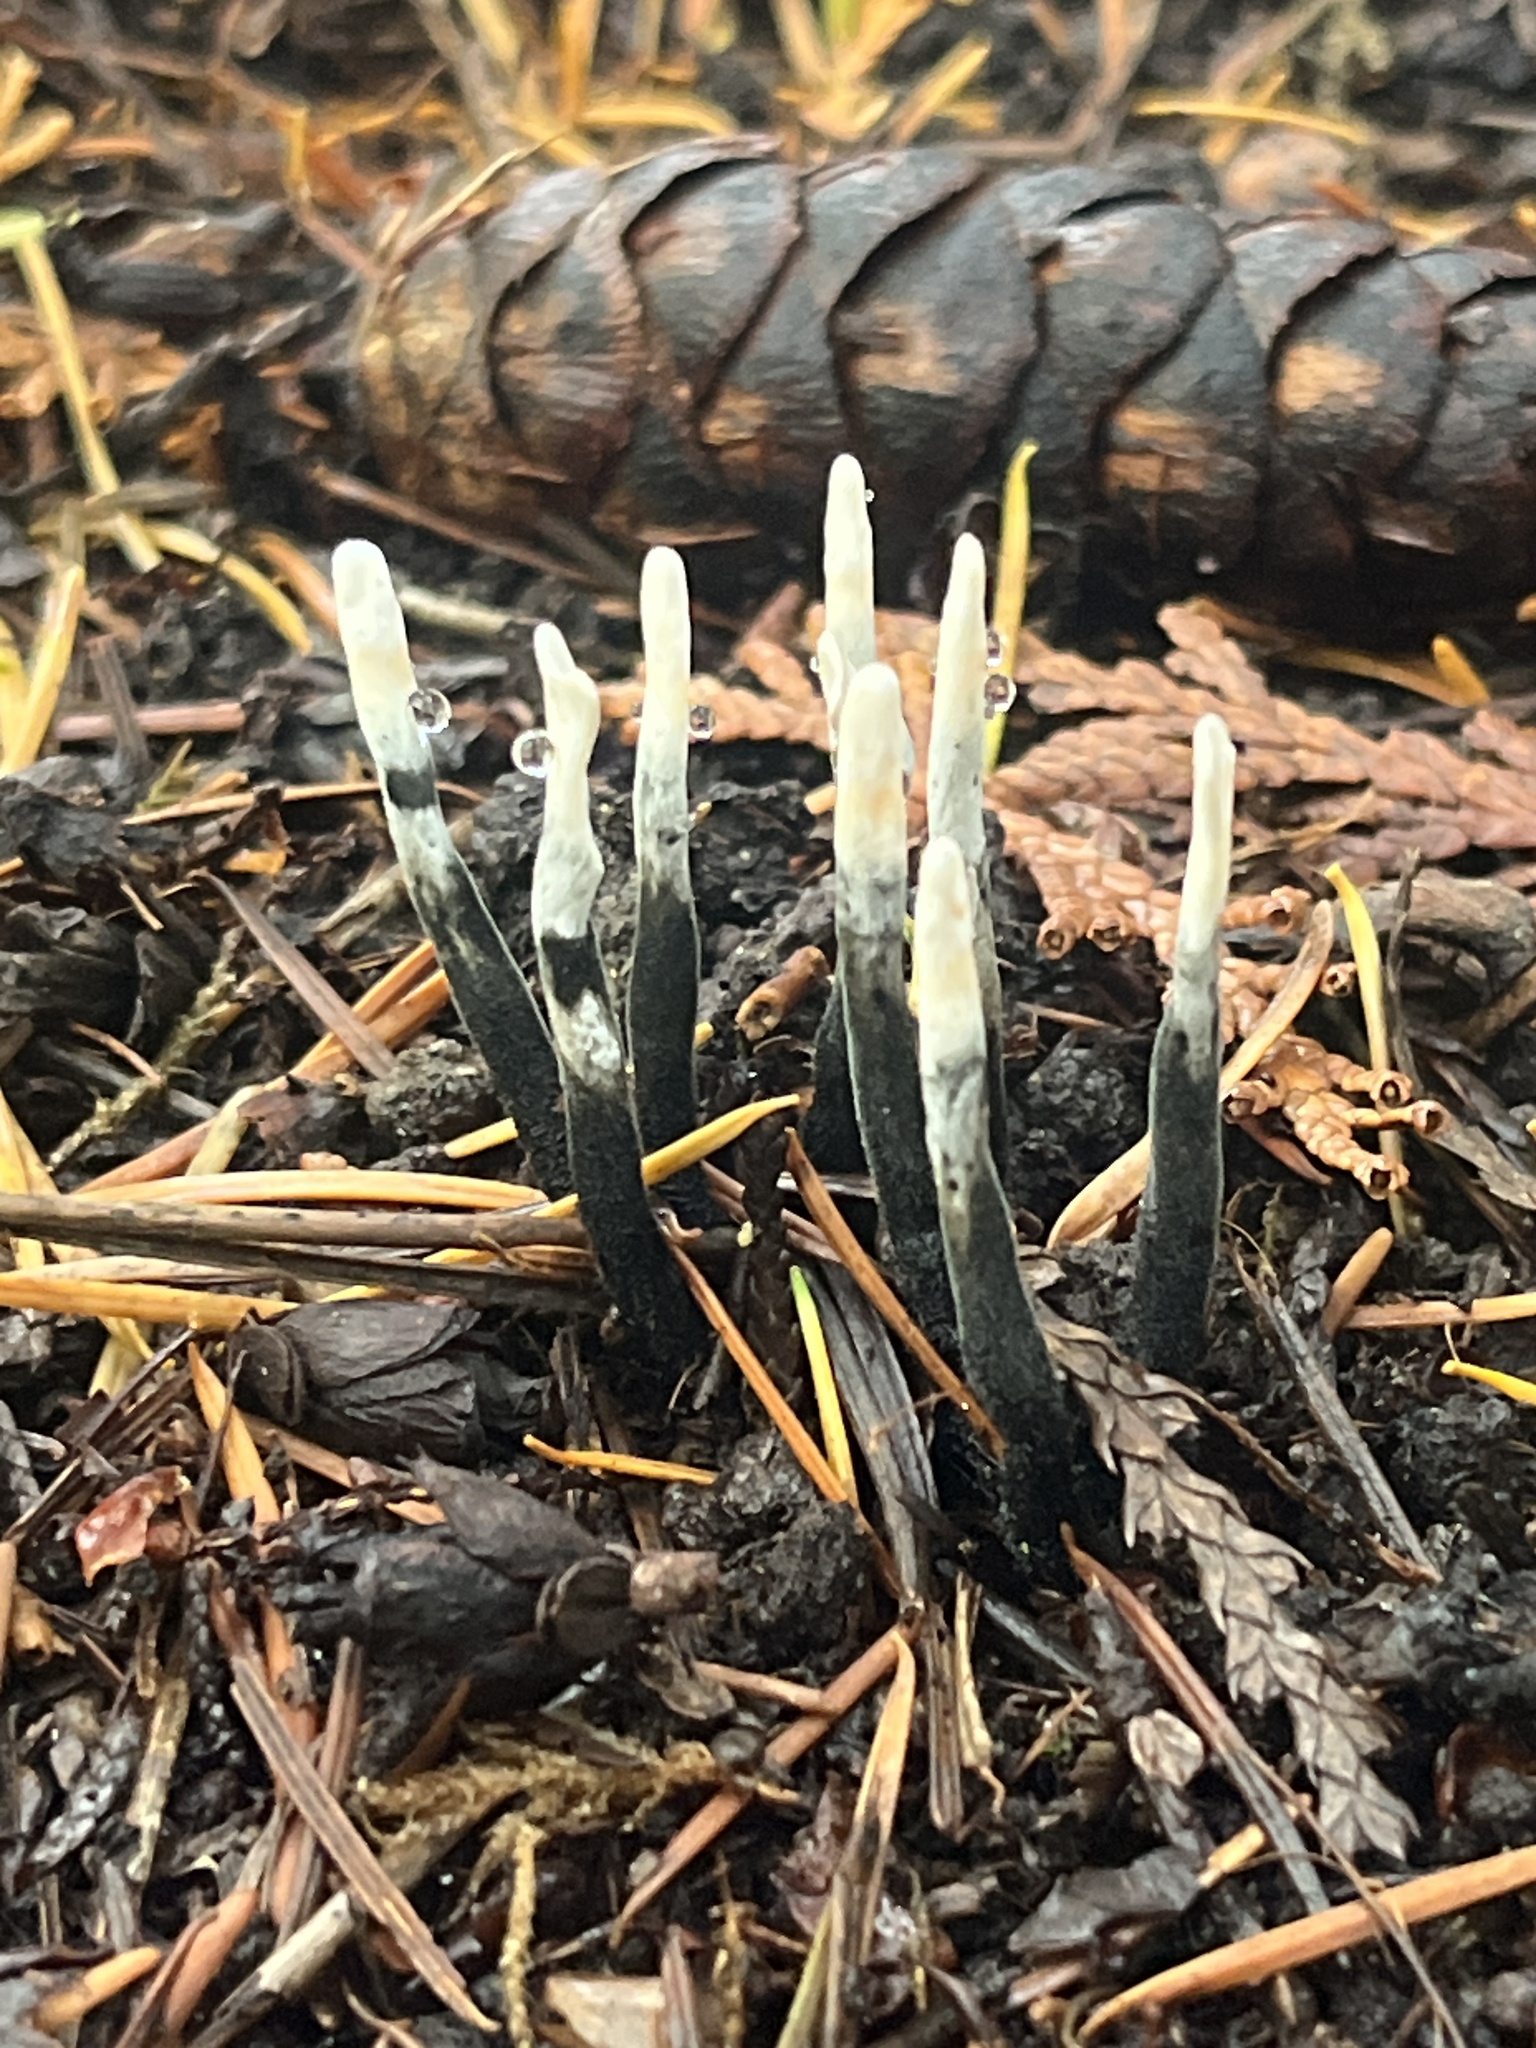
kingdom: Fungi
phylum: Ascomycota
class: Sordariomycetes
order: Xylariales
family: Xylariaceae
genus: Xylaria
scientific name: Xylaria hypoxylon
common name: Candle-snuff fungus
